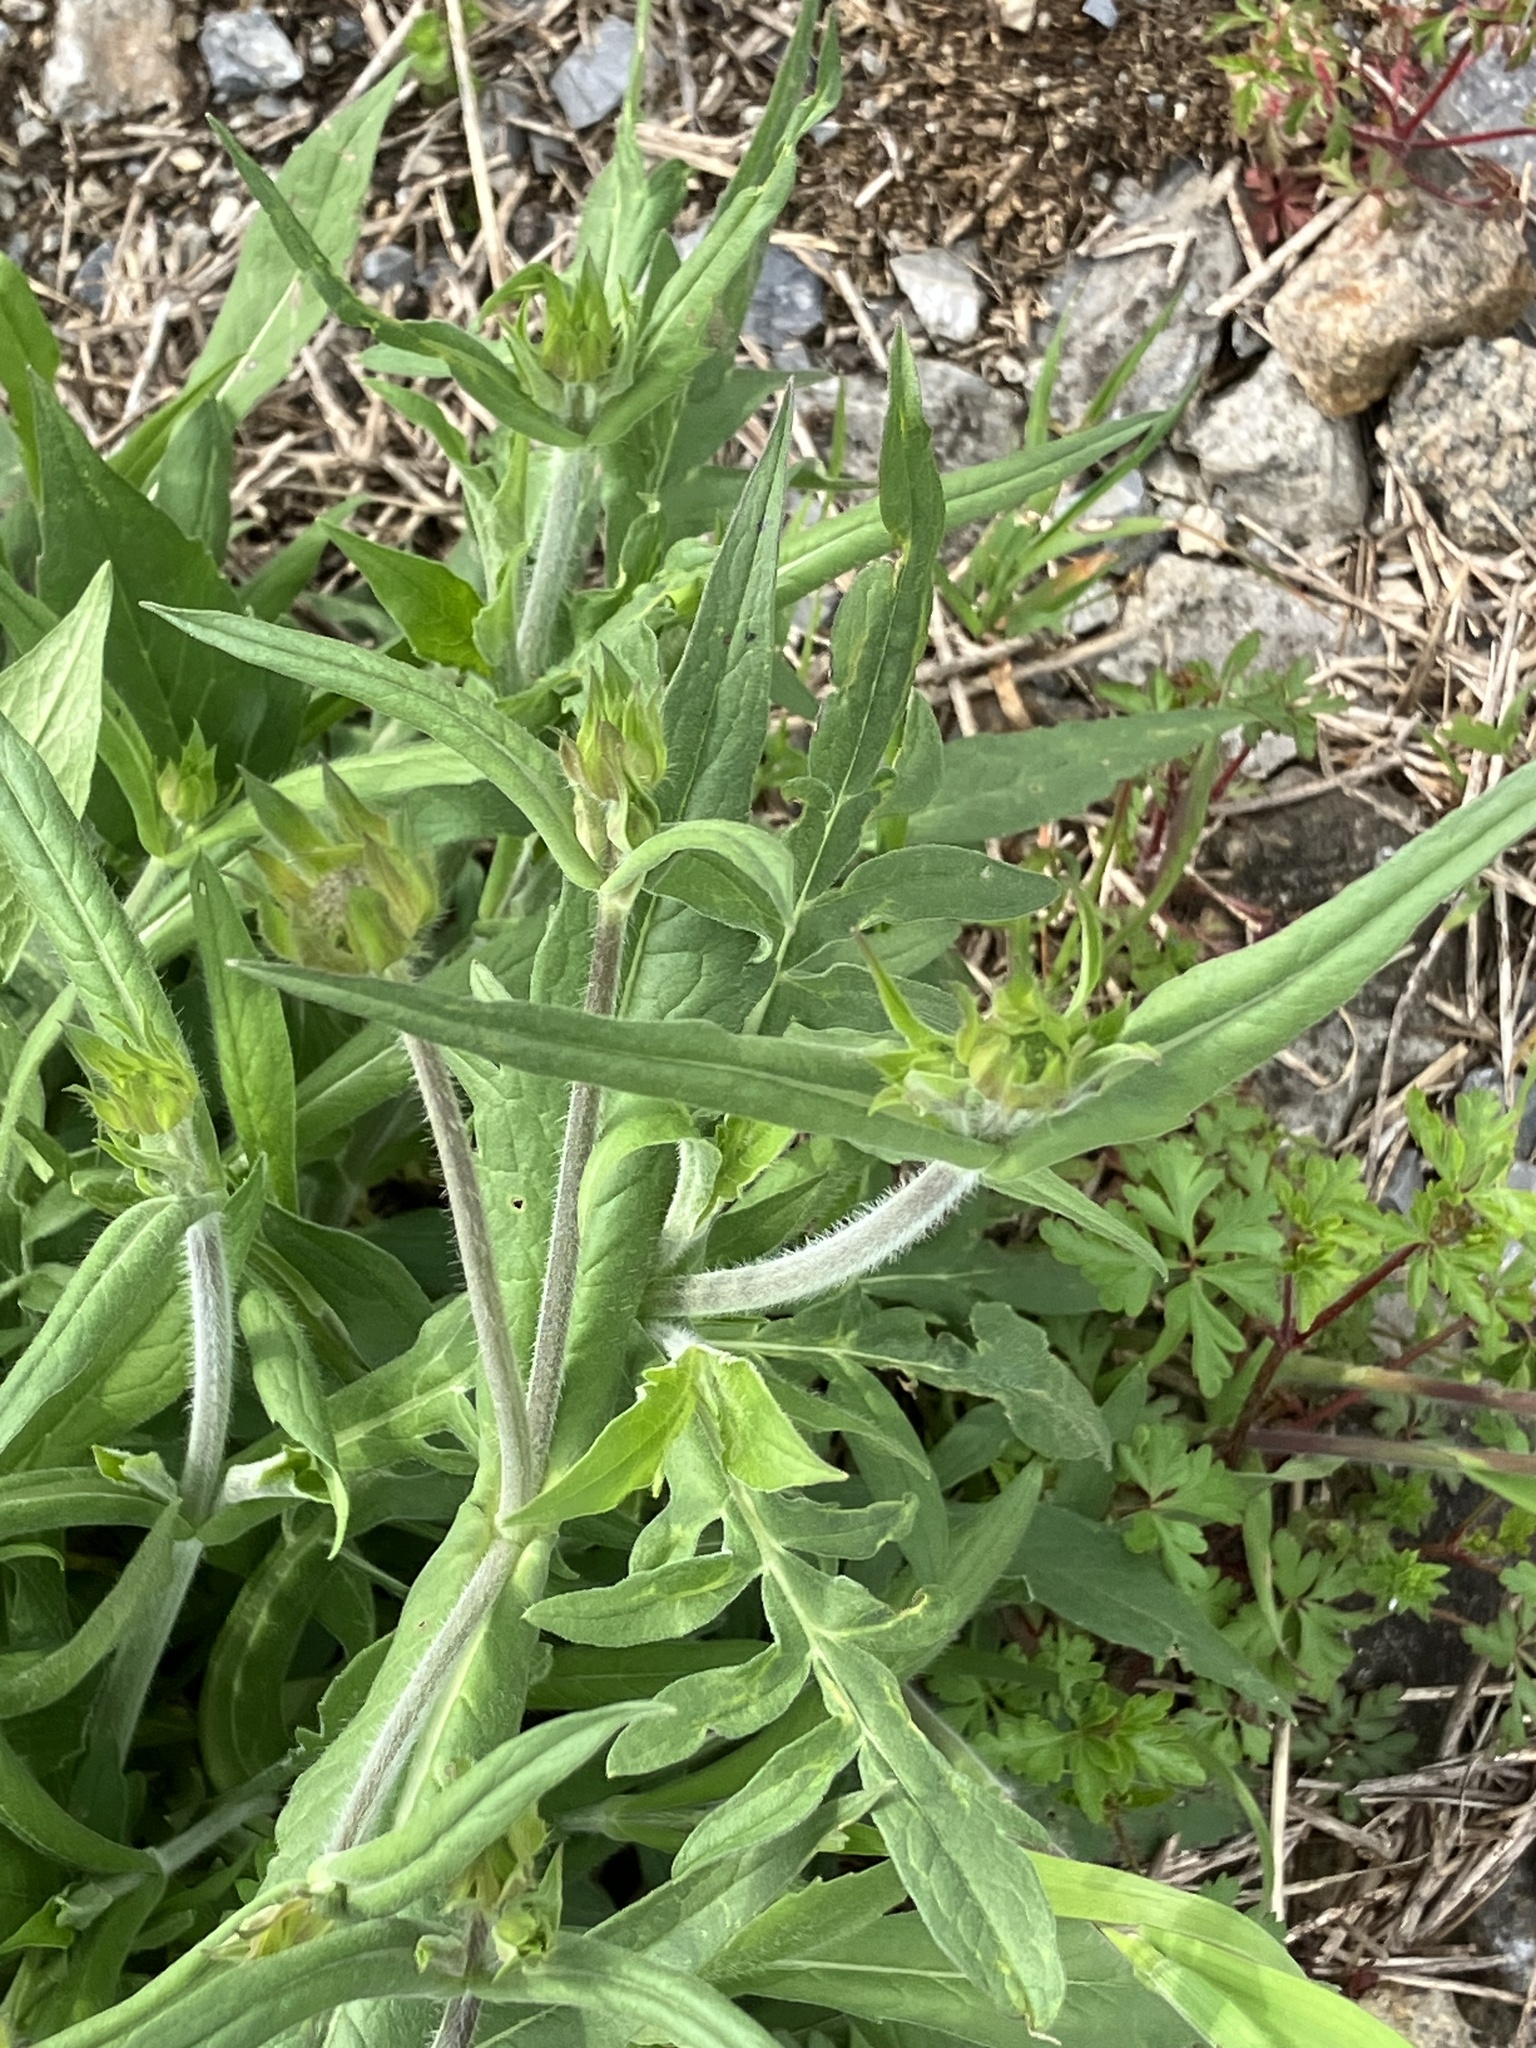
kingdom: Plantae
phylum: Tracheophyta
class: Magnoliopsida
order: Dipsacales
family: Caprifoliaceae
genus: Knautia
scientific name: Knautia arvensis
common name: Field scabiosa
